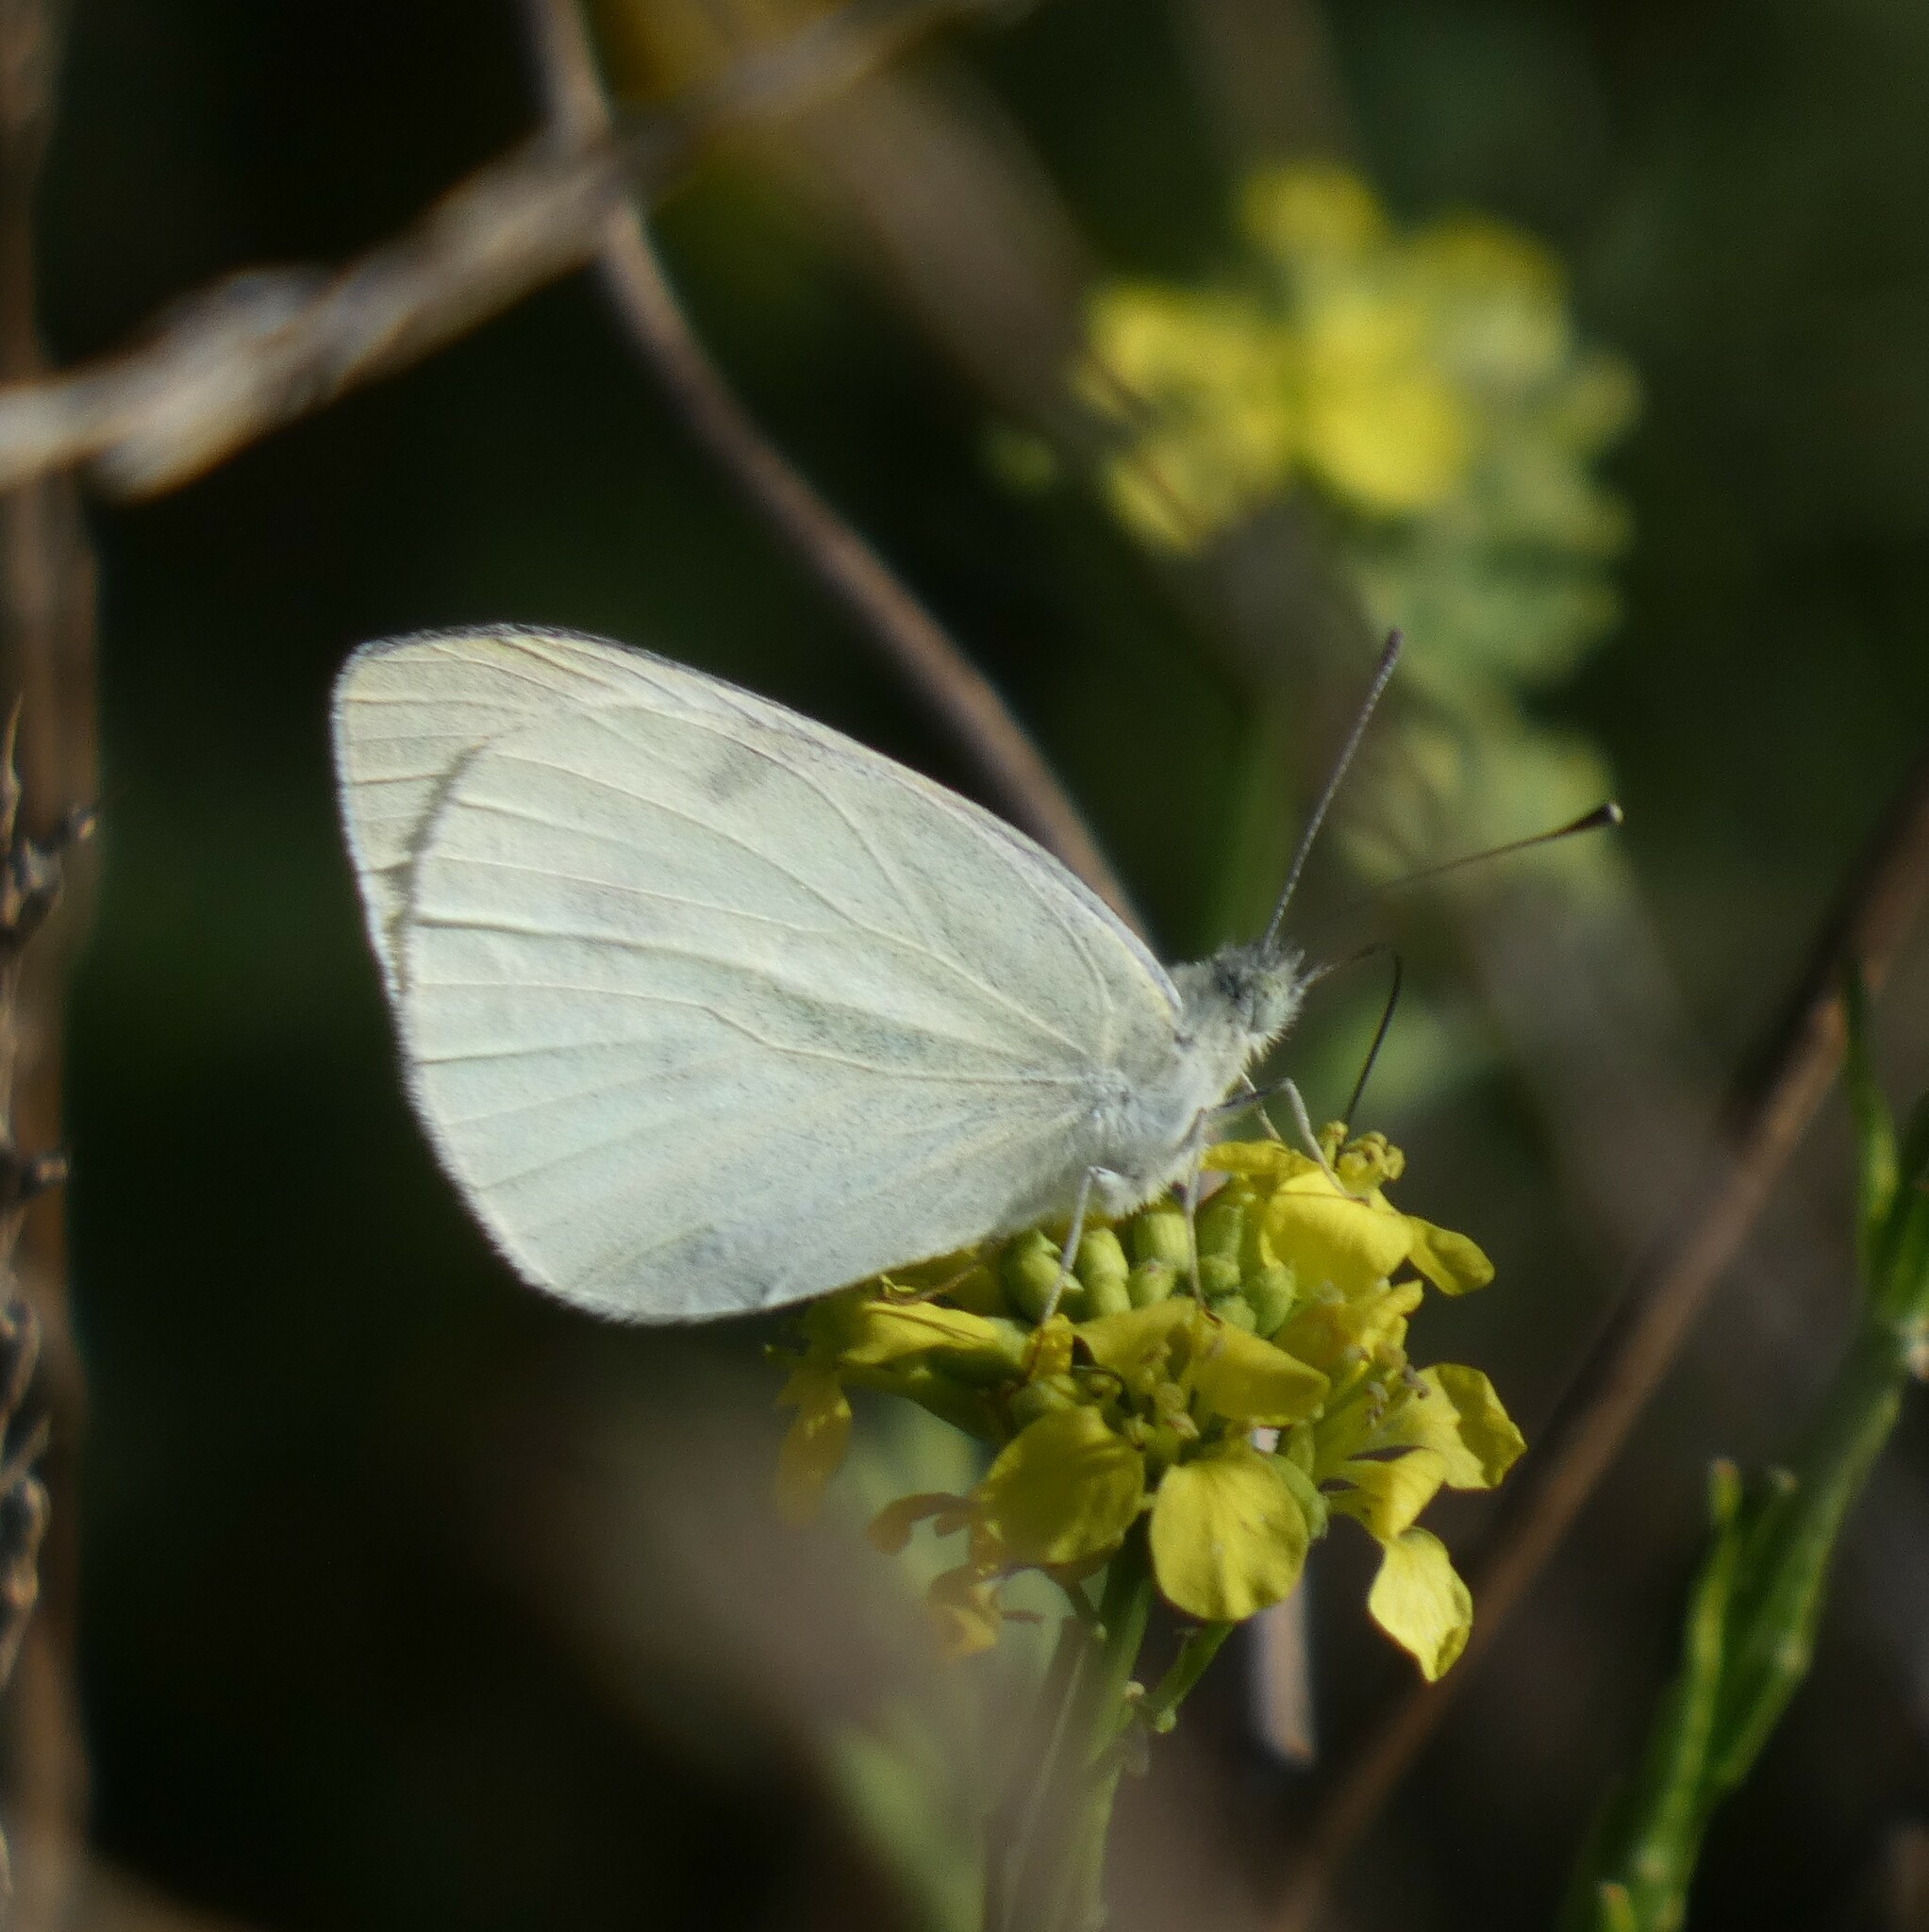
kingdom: Animalia
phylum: Arthropoda
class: Insecta
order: Lepidoptera
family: Pieridae
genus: Pieris
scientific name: Pieris rapae
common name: Small white
